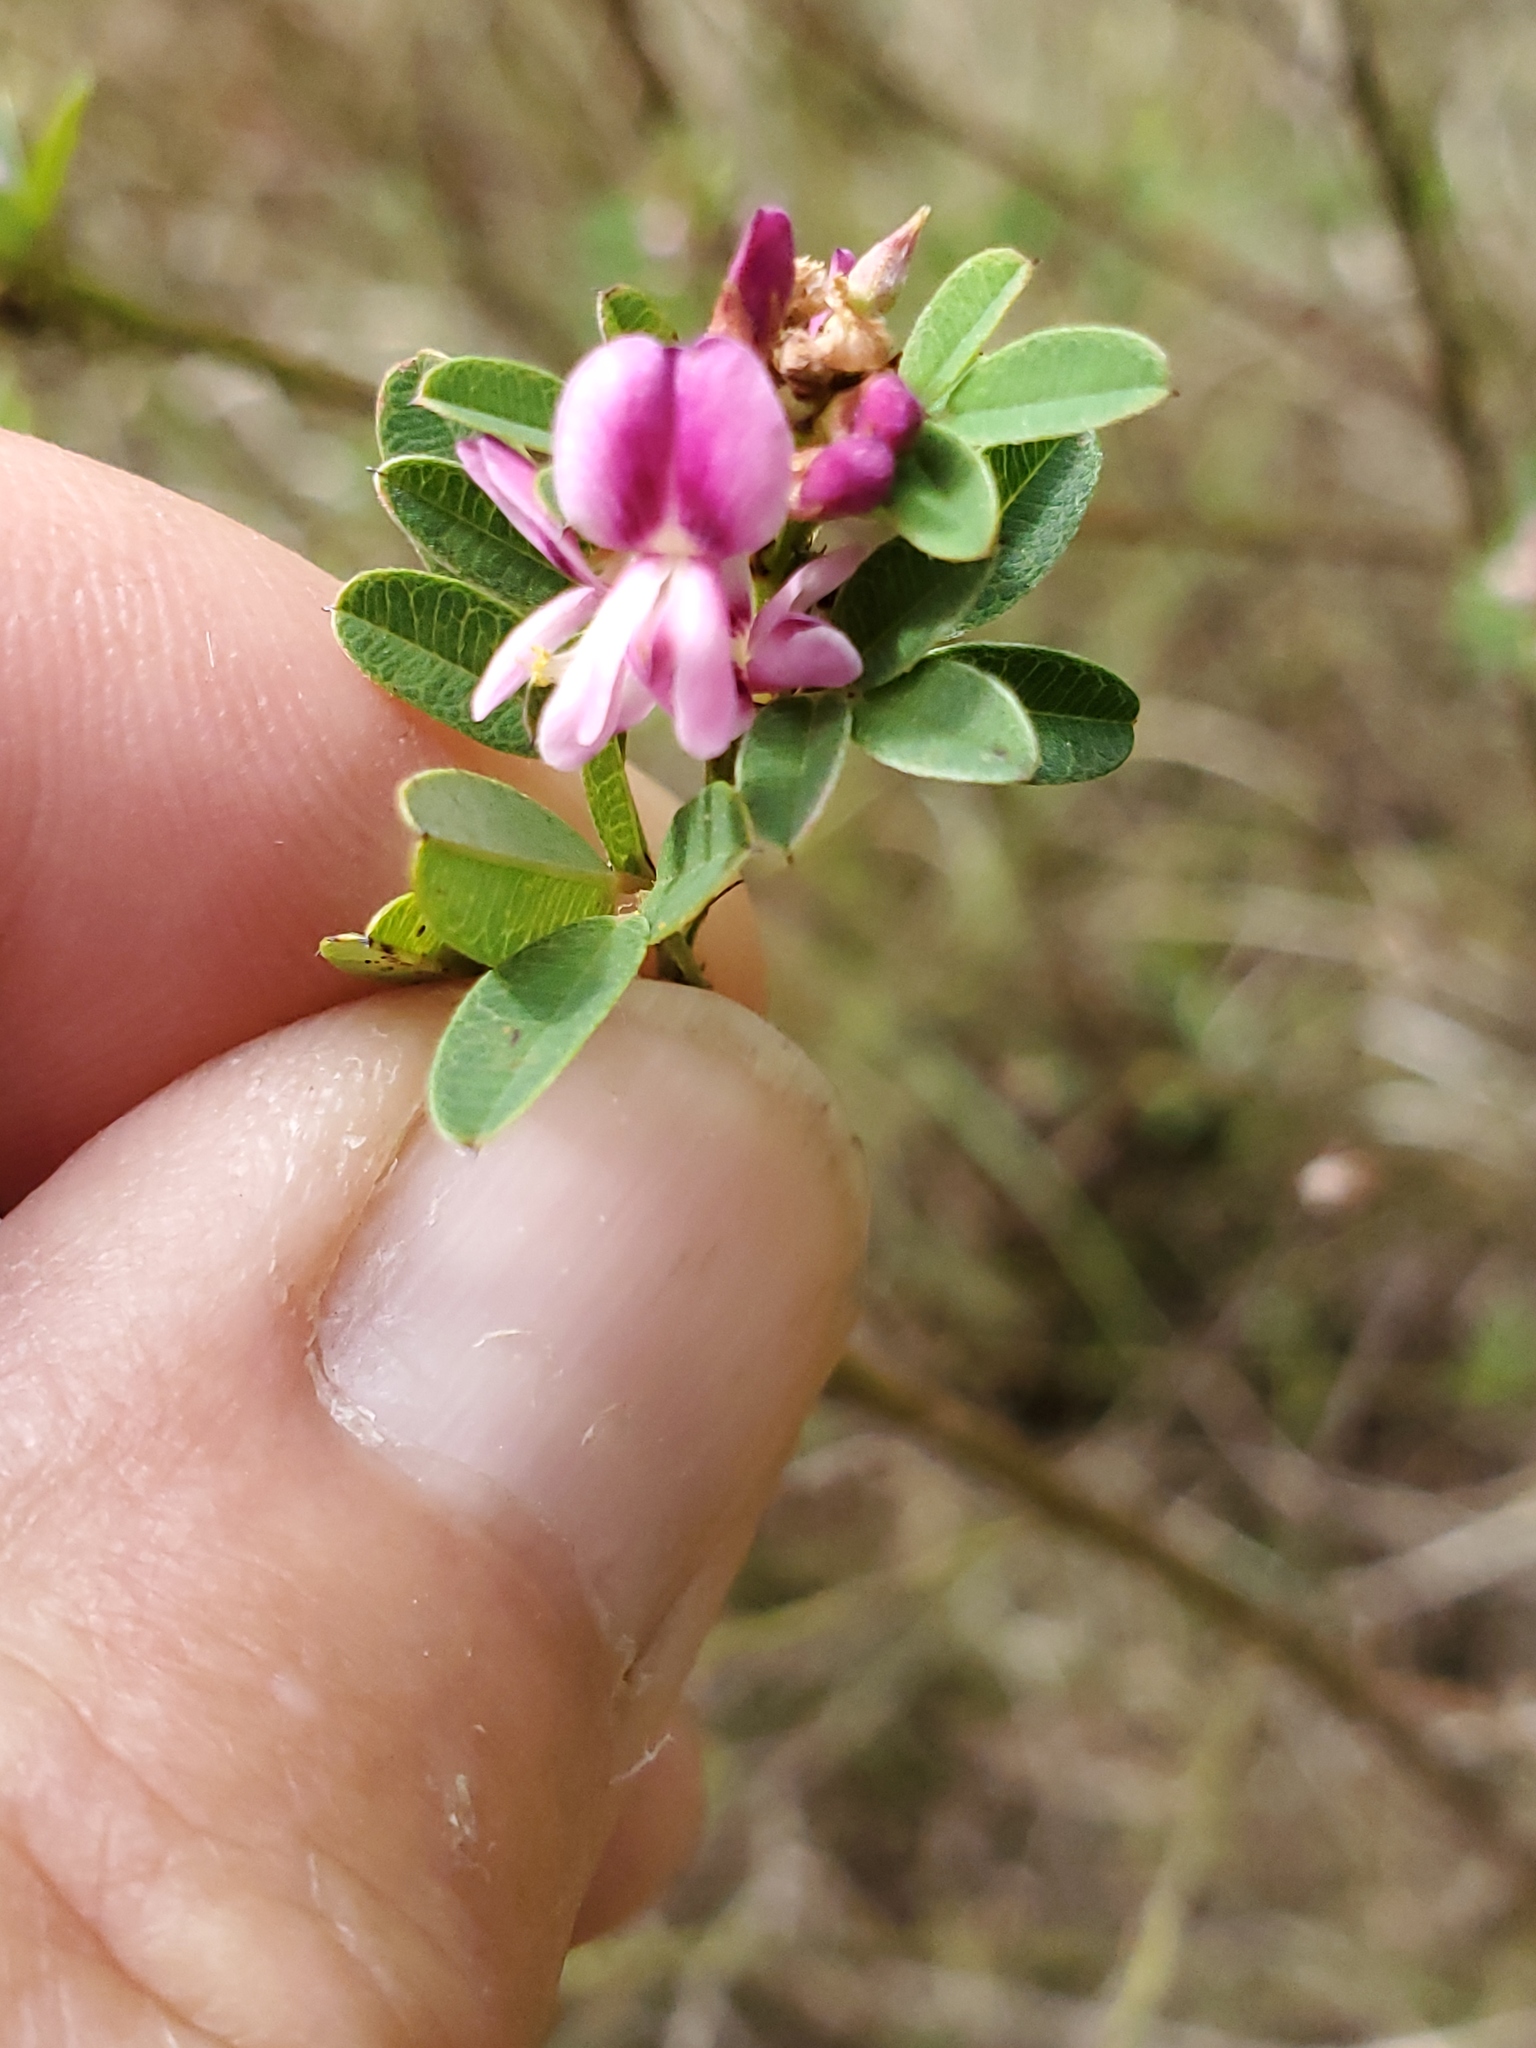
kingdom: Plantae
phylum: Tracheophyta
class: Magnoliopsida
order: Fabales
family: Fabaceae
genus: Kummerowia
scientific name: Kummerowia striata
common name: Japanese clover
